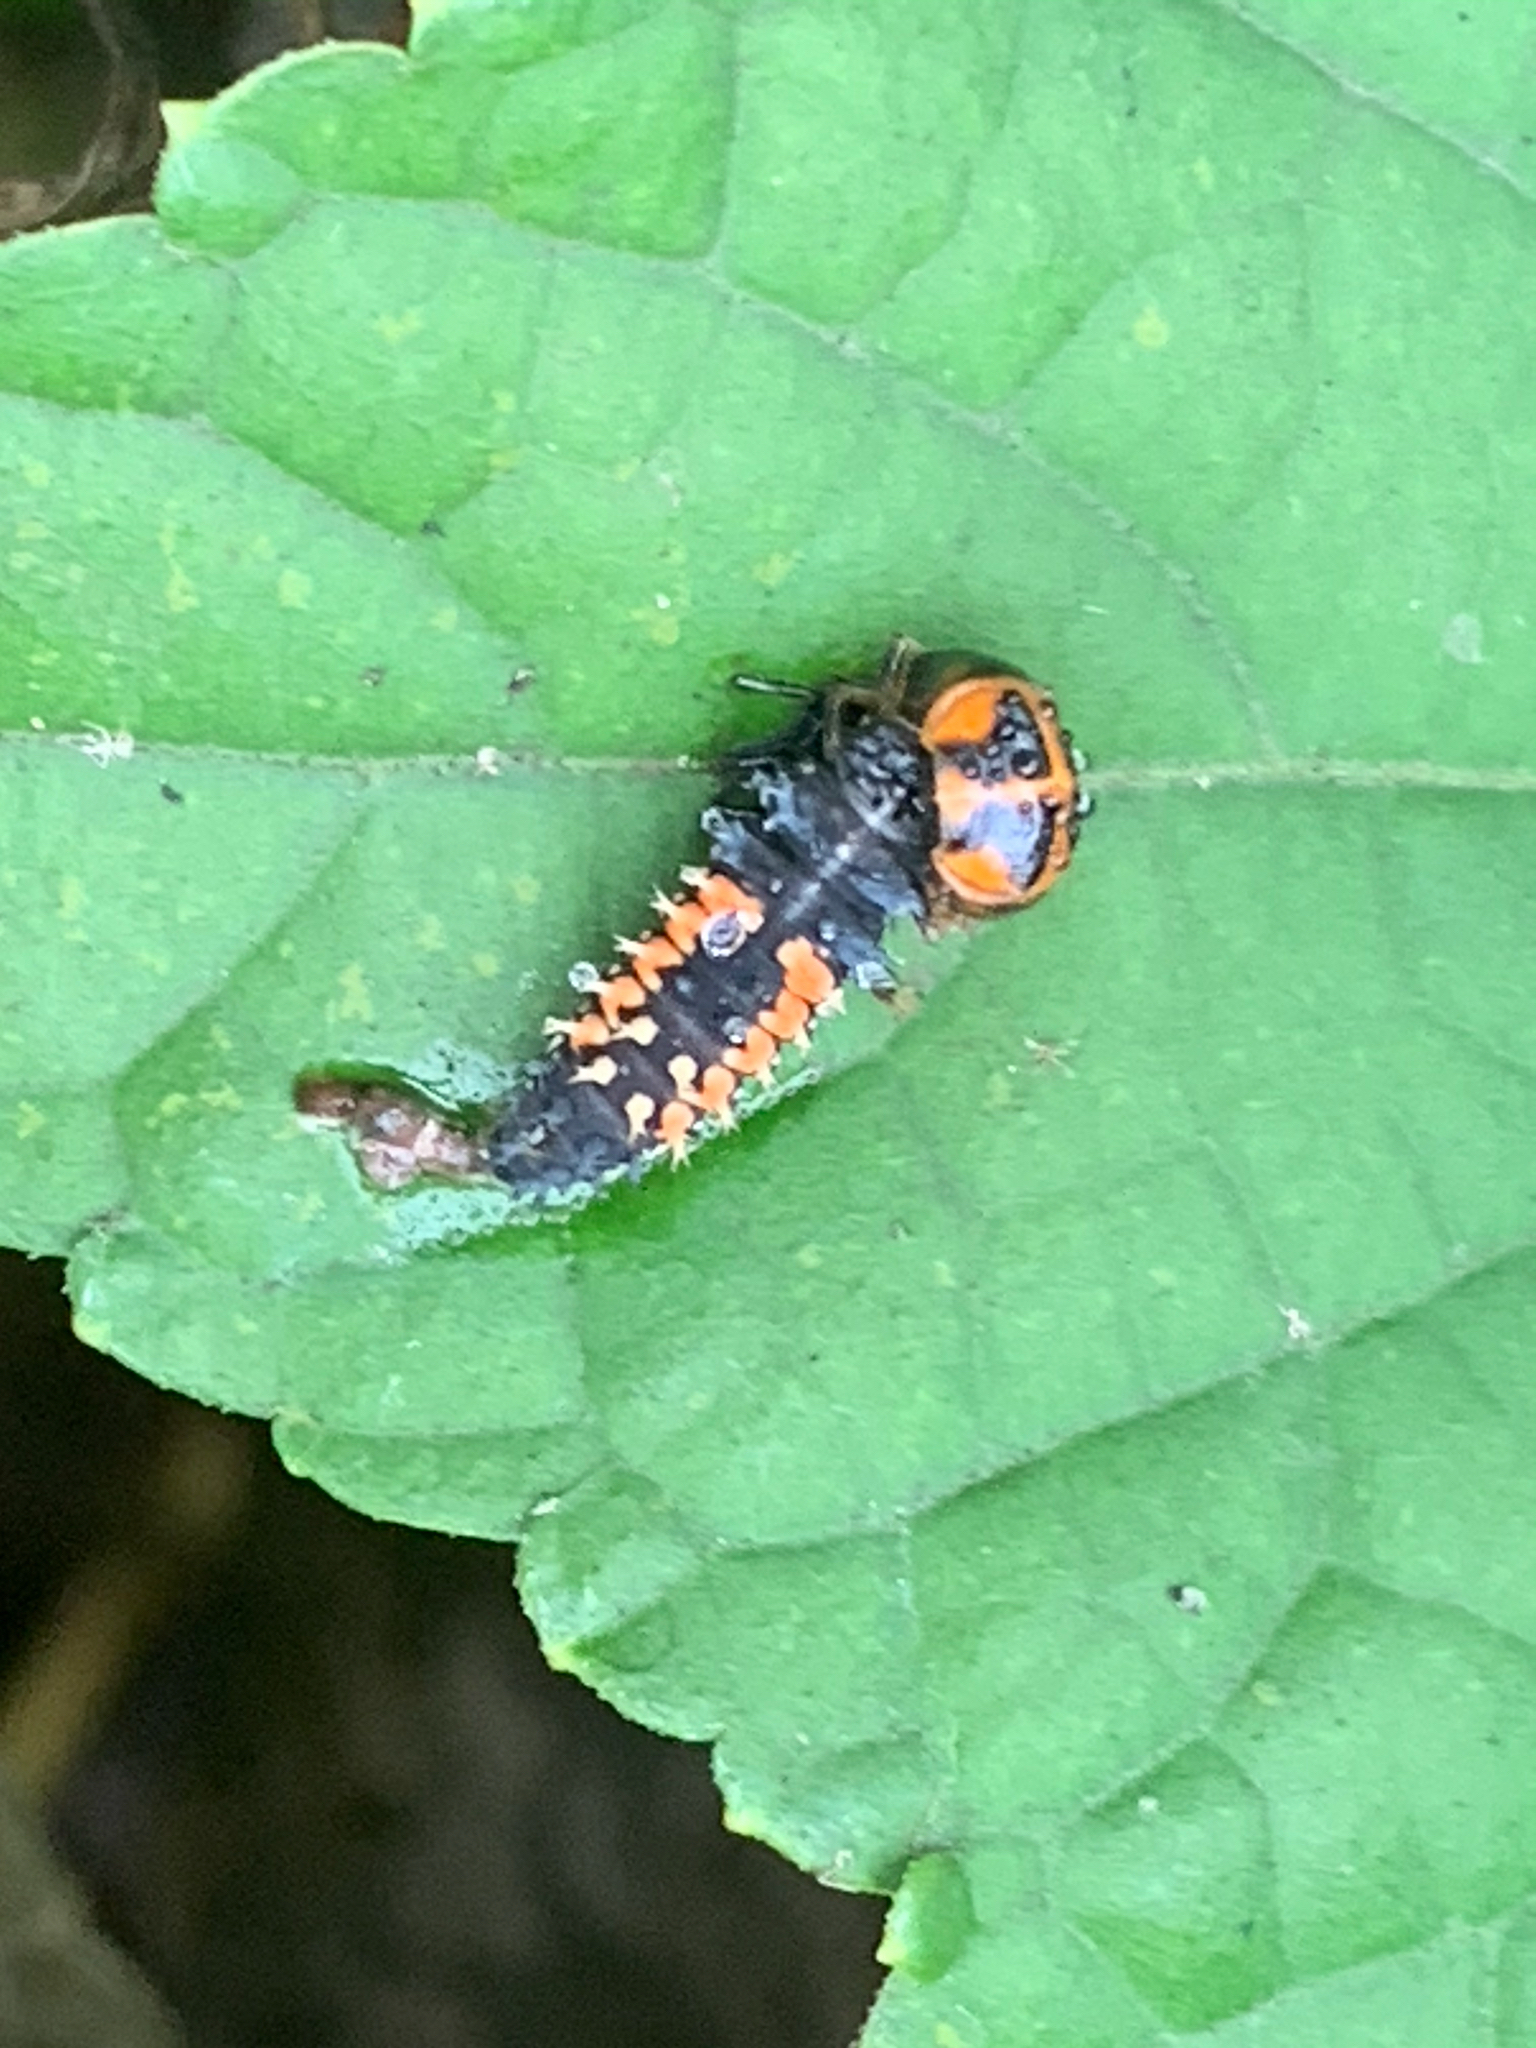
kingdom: Animalia
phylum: Arthropoda
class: Insecta
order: Coleoptera
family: Coccinellidae
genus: Harmonia
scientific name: Harmonia axyridis
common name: Harlequin ladybird
